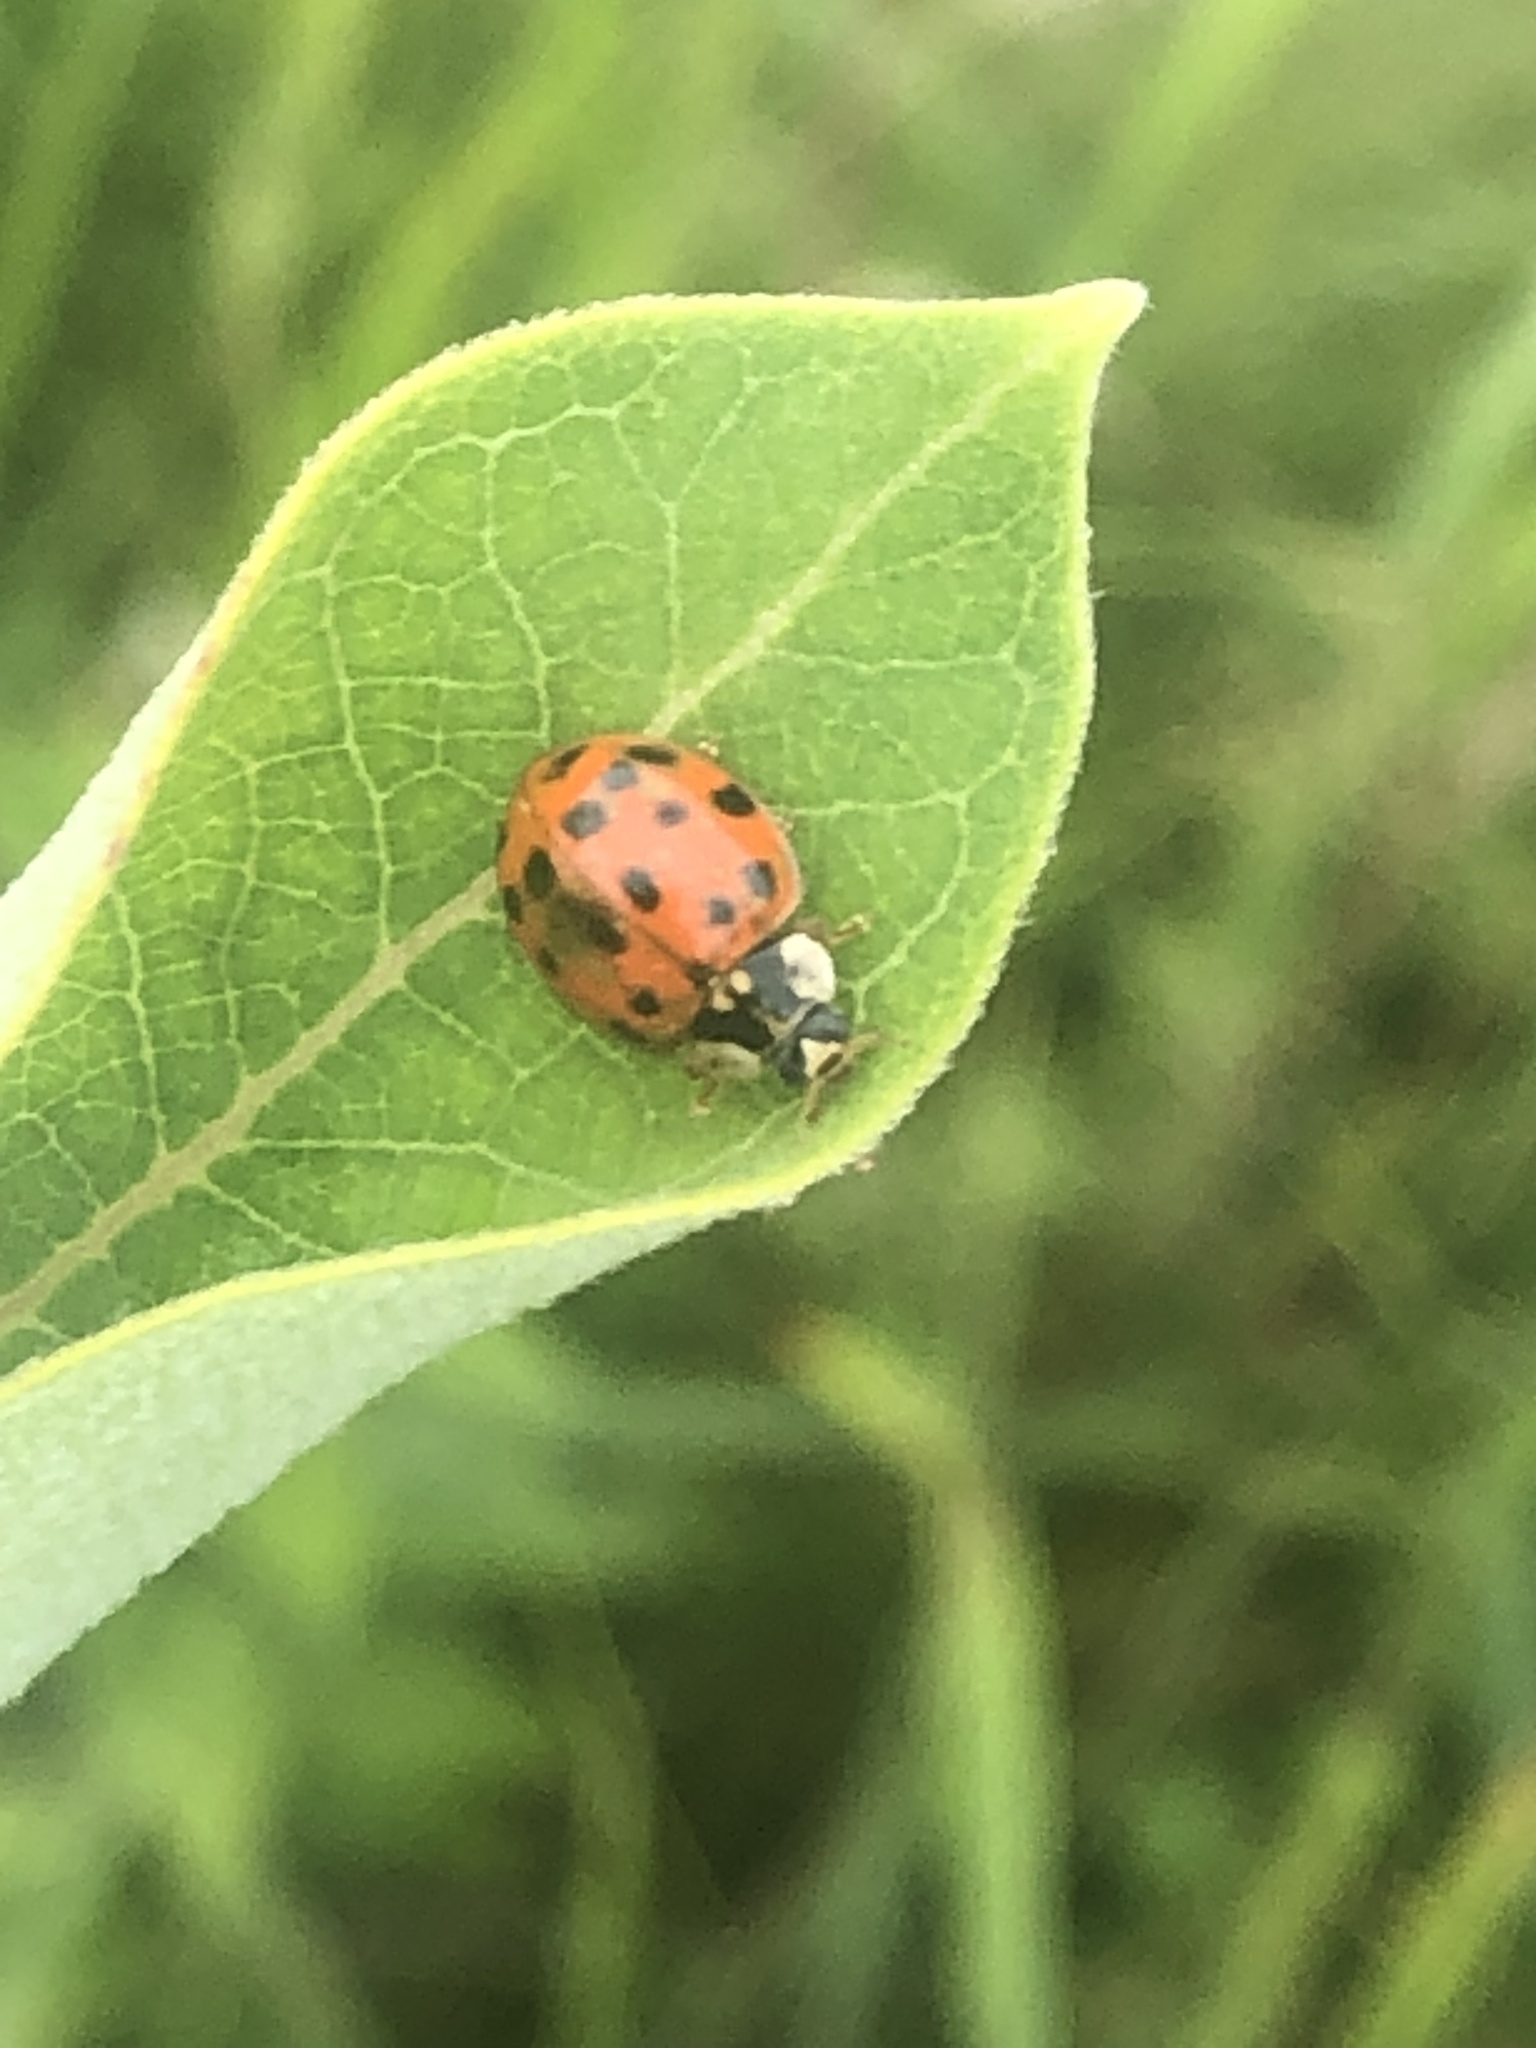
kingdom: Animalia
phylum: Arthropoda
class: Insecta
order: Coleoptera
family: Coccinellidae
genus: Harmonia
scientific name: Harmonia axyridis
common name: Harlequin ladybird
